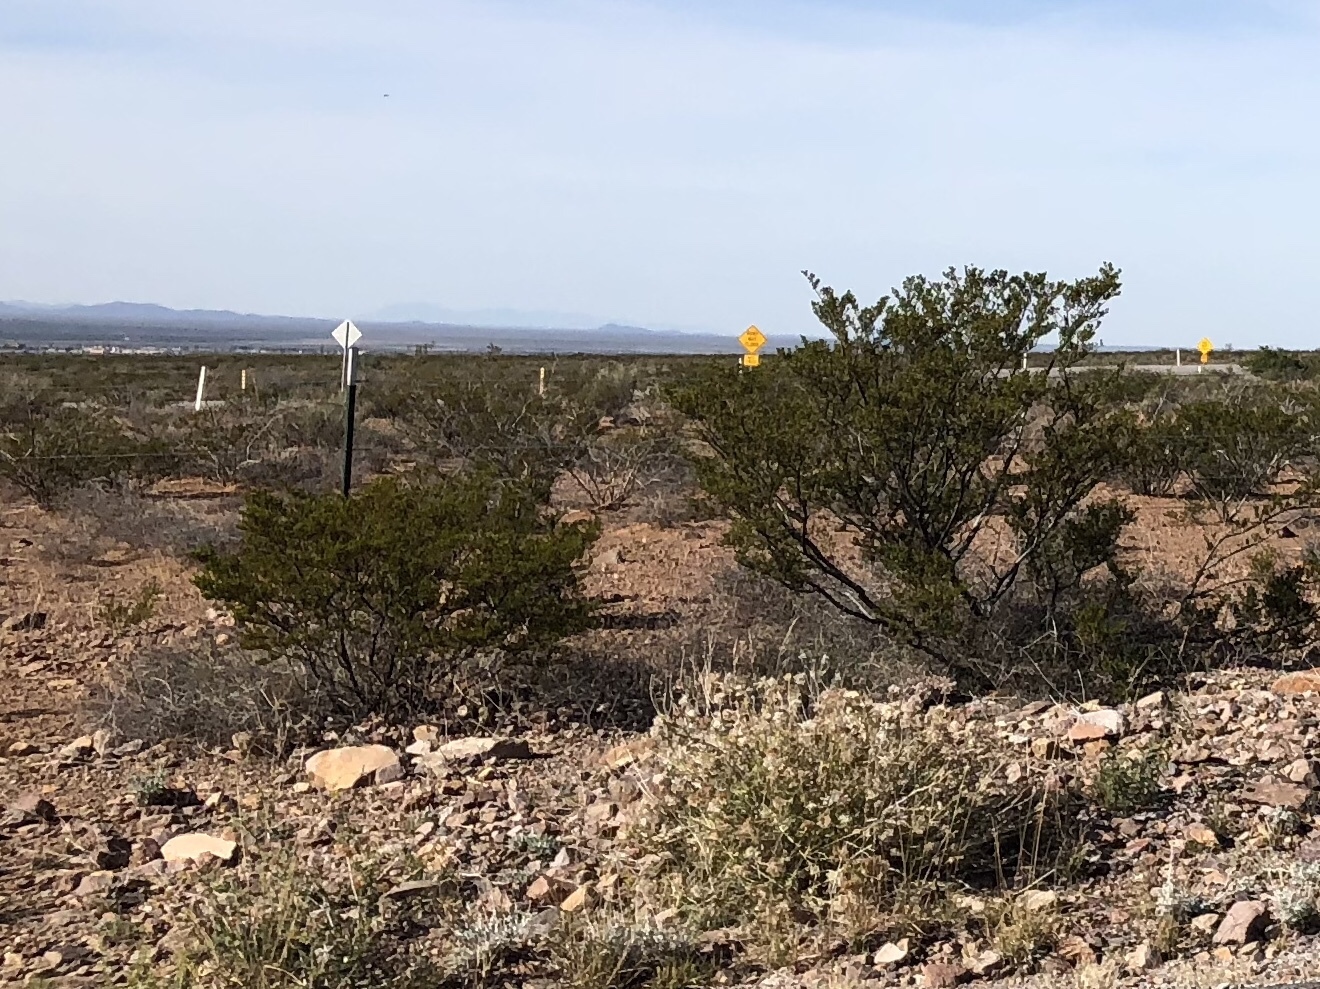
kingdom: Plantae
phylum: Tracheophyta
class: Magnoliopsida
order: Zygophyllales
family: Zygophyllaceae
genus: Larrea
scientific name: Larrea tridentata
